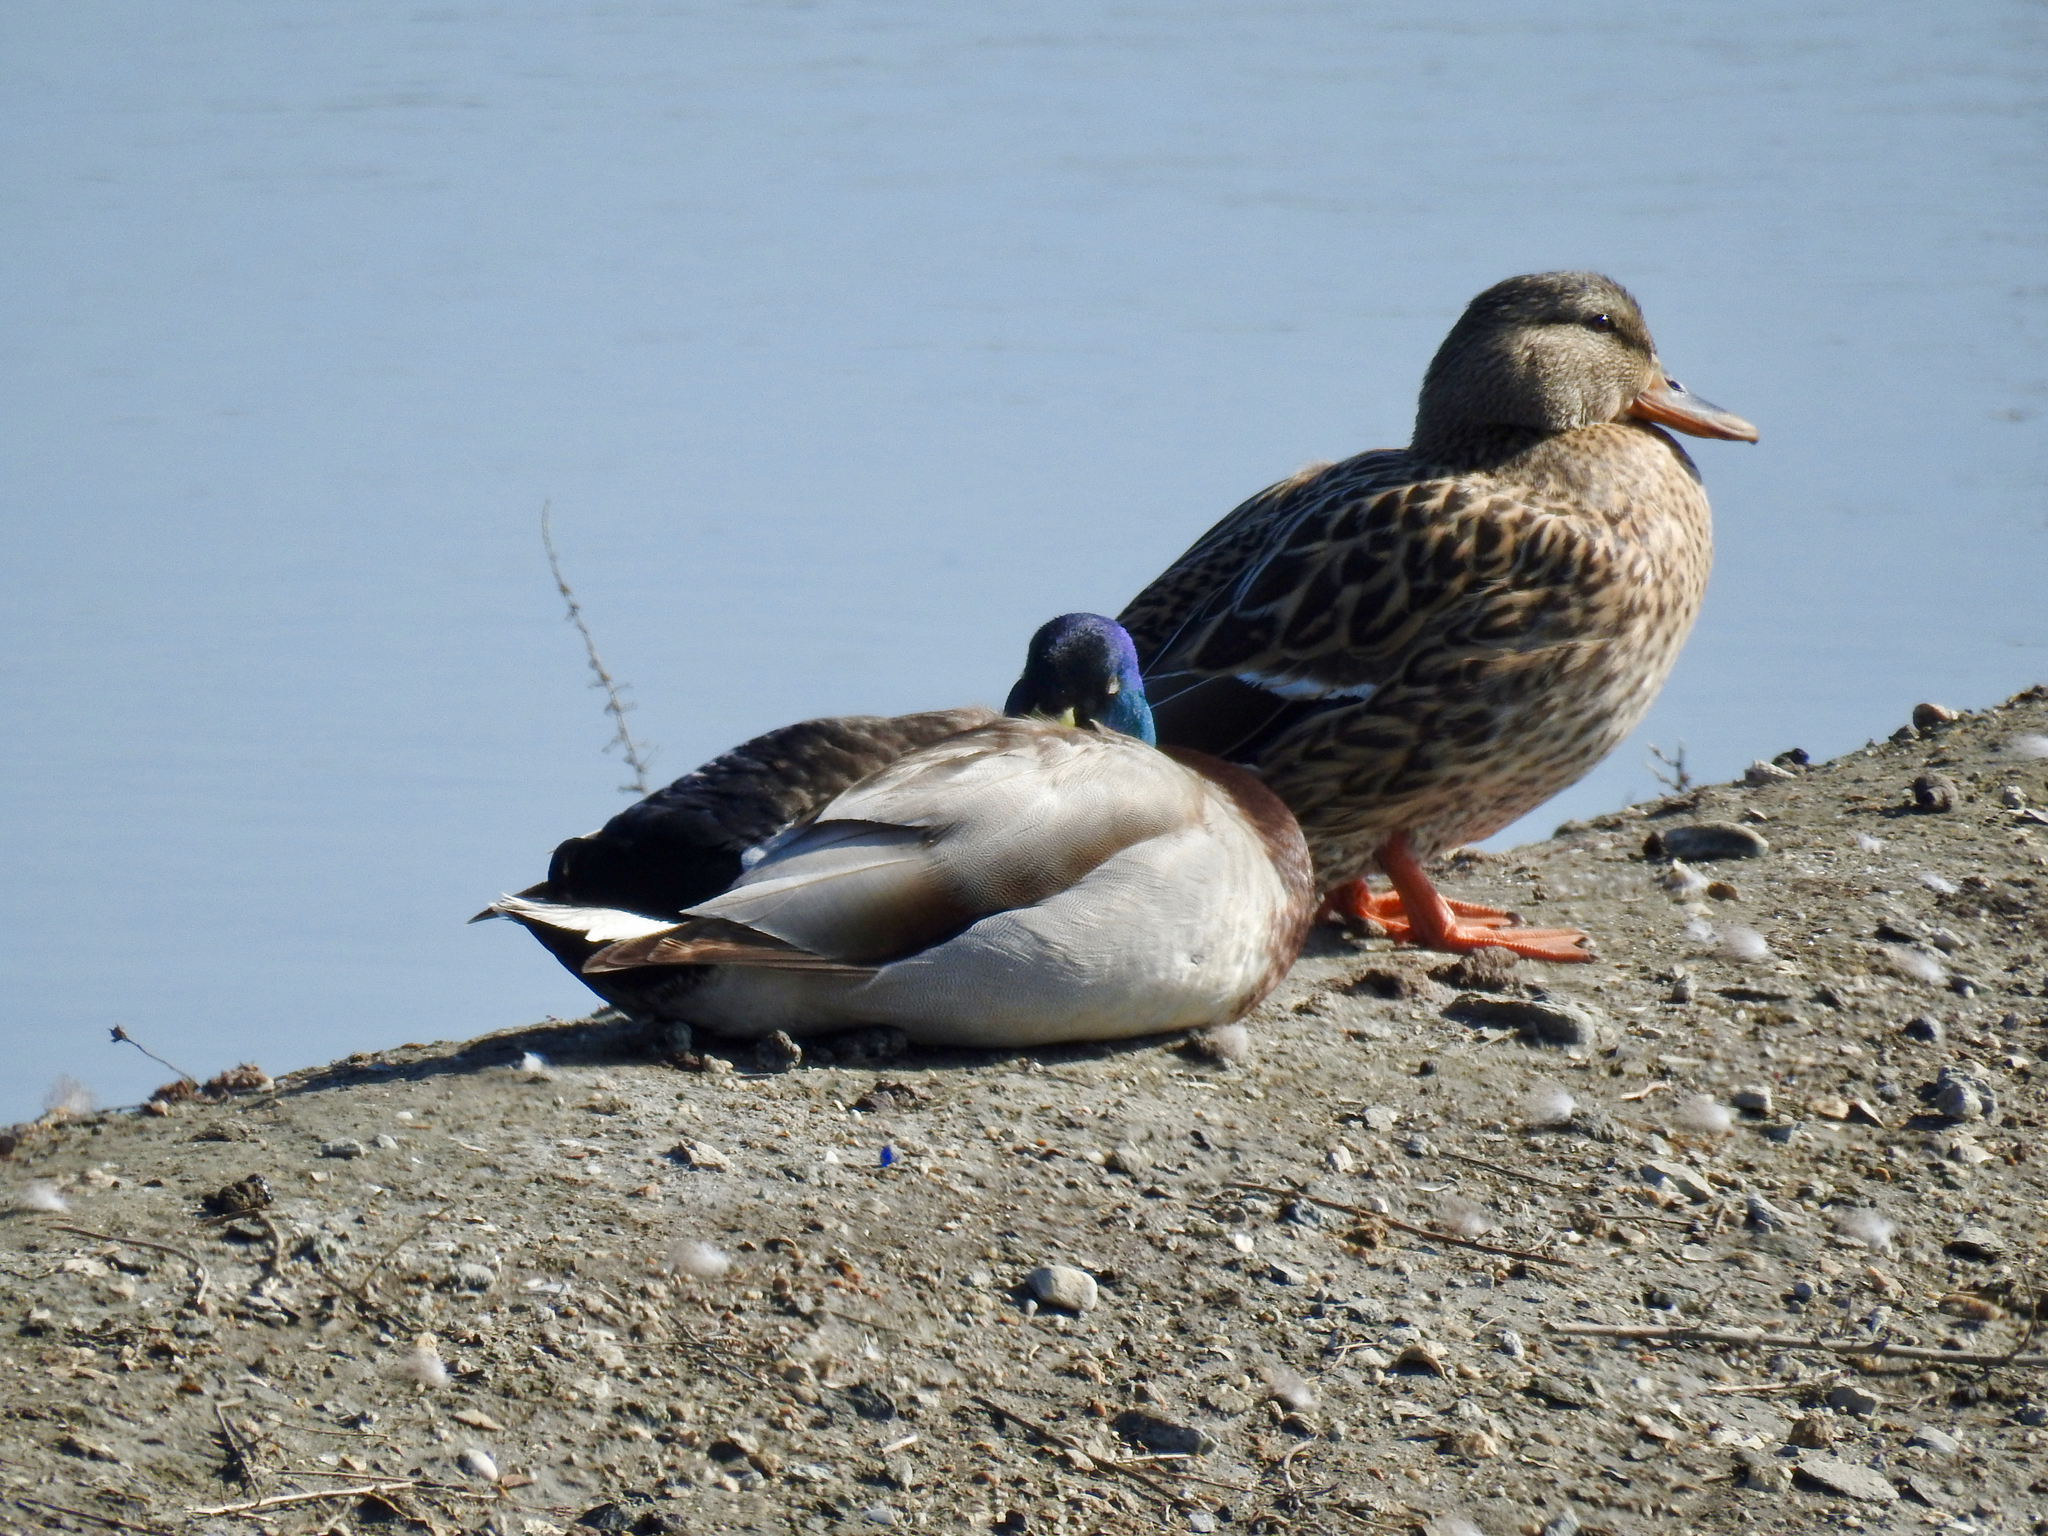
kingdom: Animalia
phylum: Chordata
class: Aves
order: Anseriformes
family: Anatidae
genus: Anas
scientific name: Anas platyrhynchos
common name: Mallard
